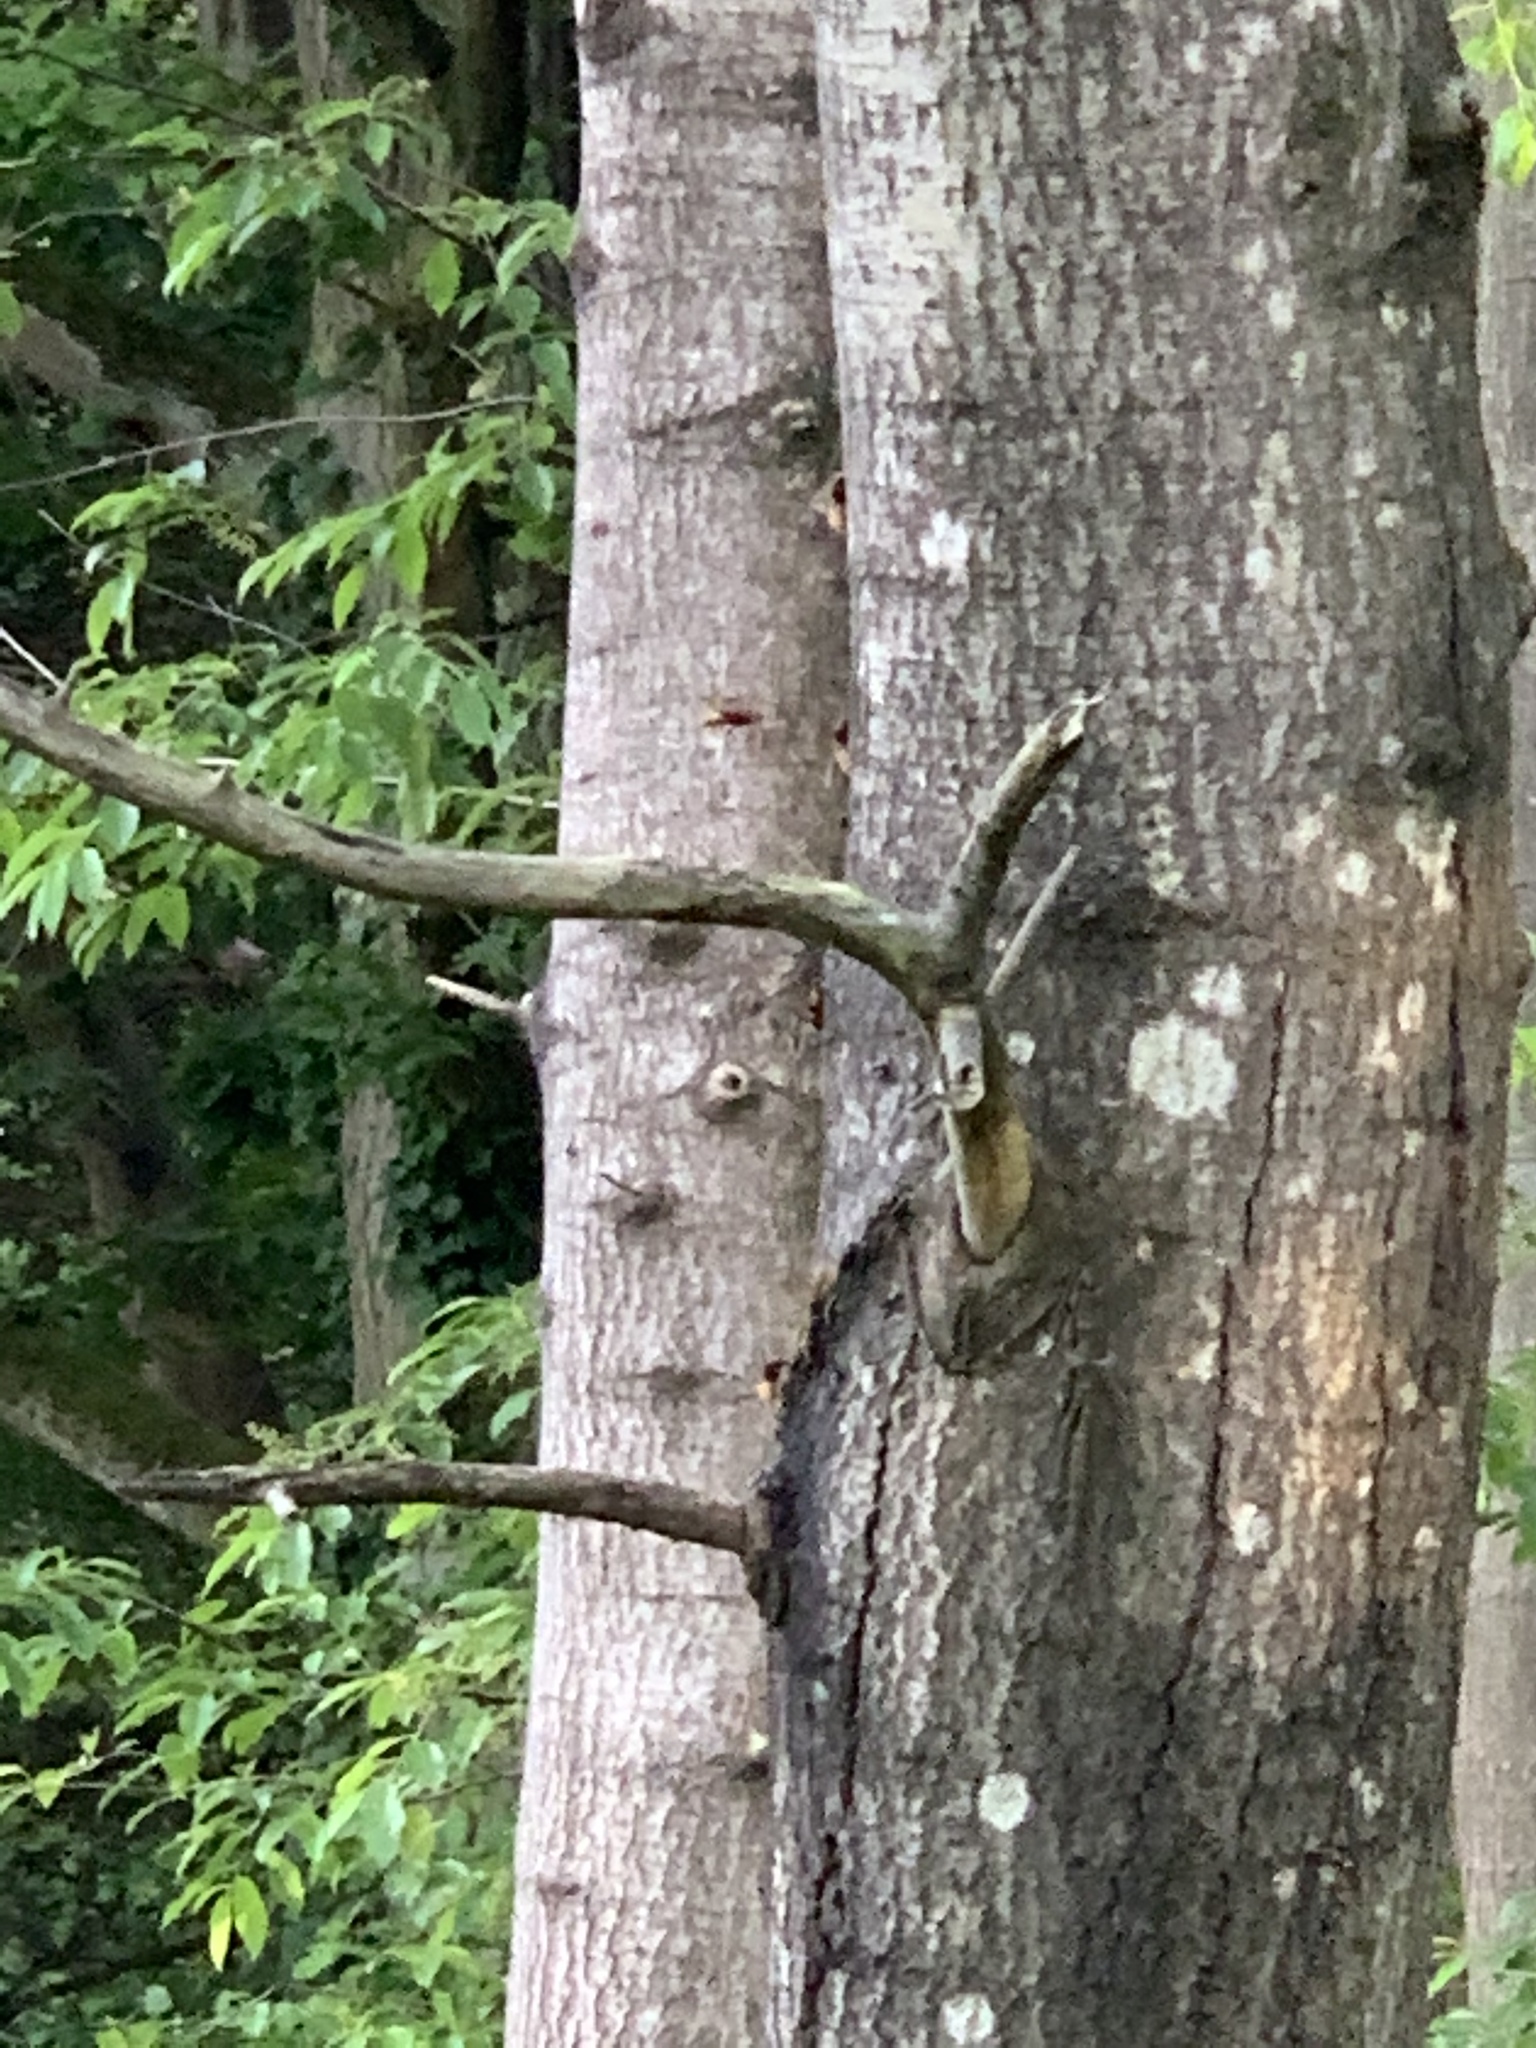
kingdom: Animalia
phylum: Arthropoda
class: Insecta
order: Hymenoptera
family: Vespidae
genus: Vespa
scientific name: Vespa crabro
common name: Hornet
